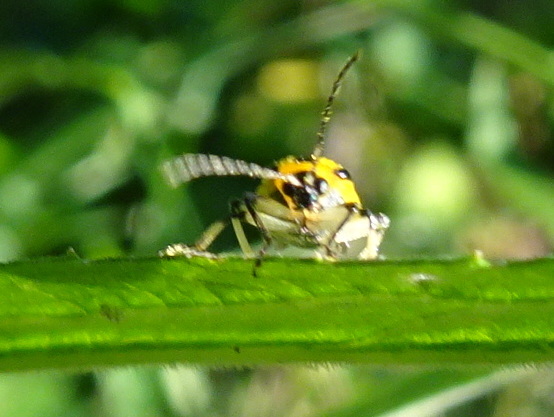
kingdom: Animalia
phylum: Arthropoda
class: Insecta
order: Coleoptera
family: Chrysomelidae
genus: Acalymma
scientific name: Acalymma vittatum
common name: Striped cucumber beetle
